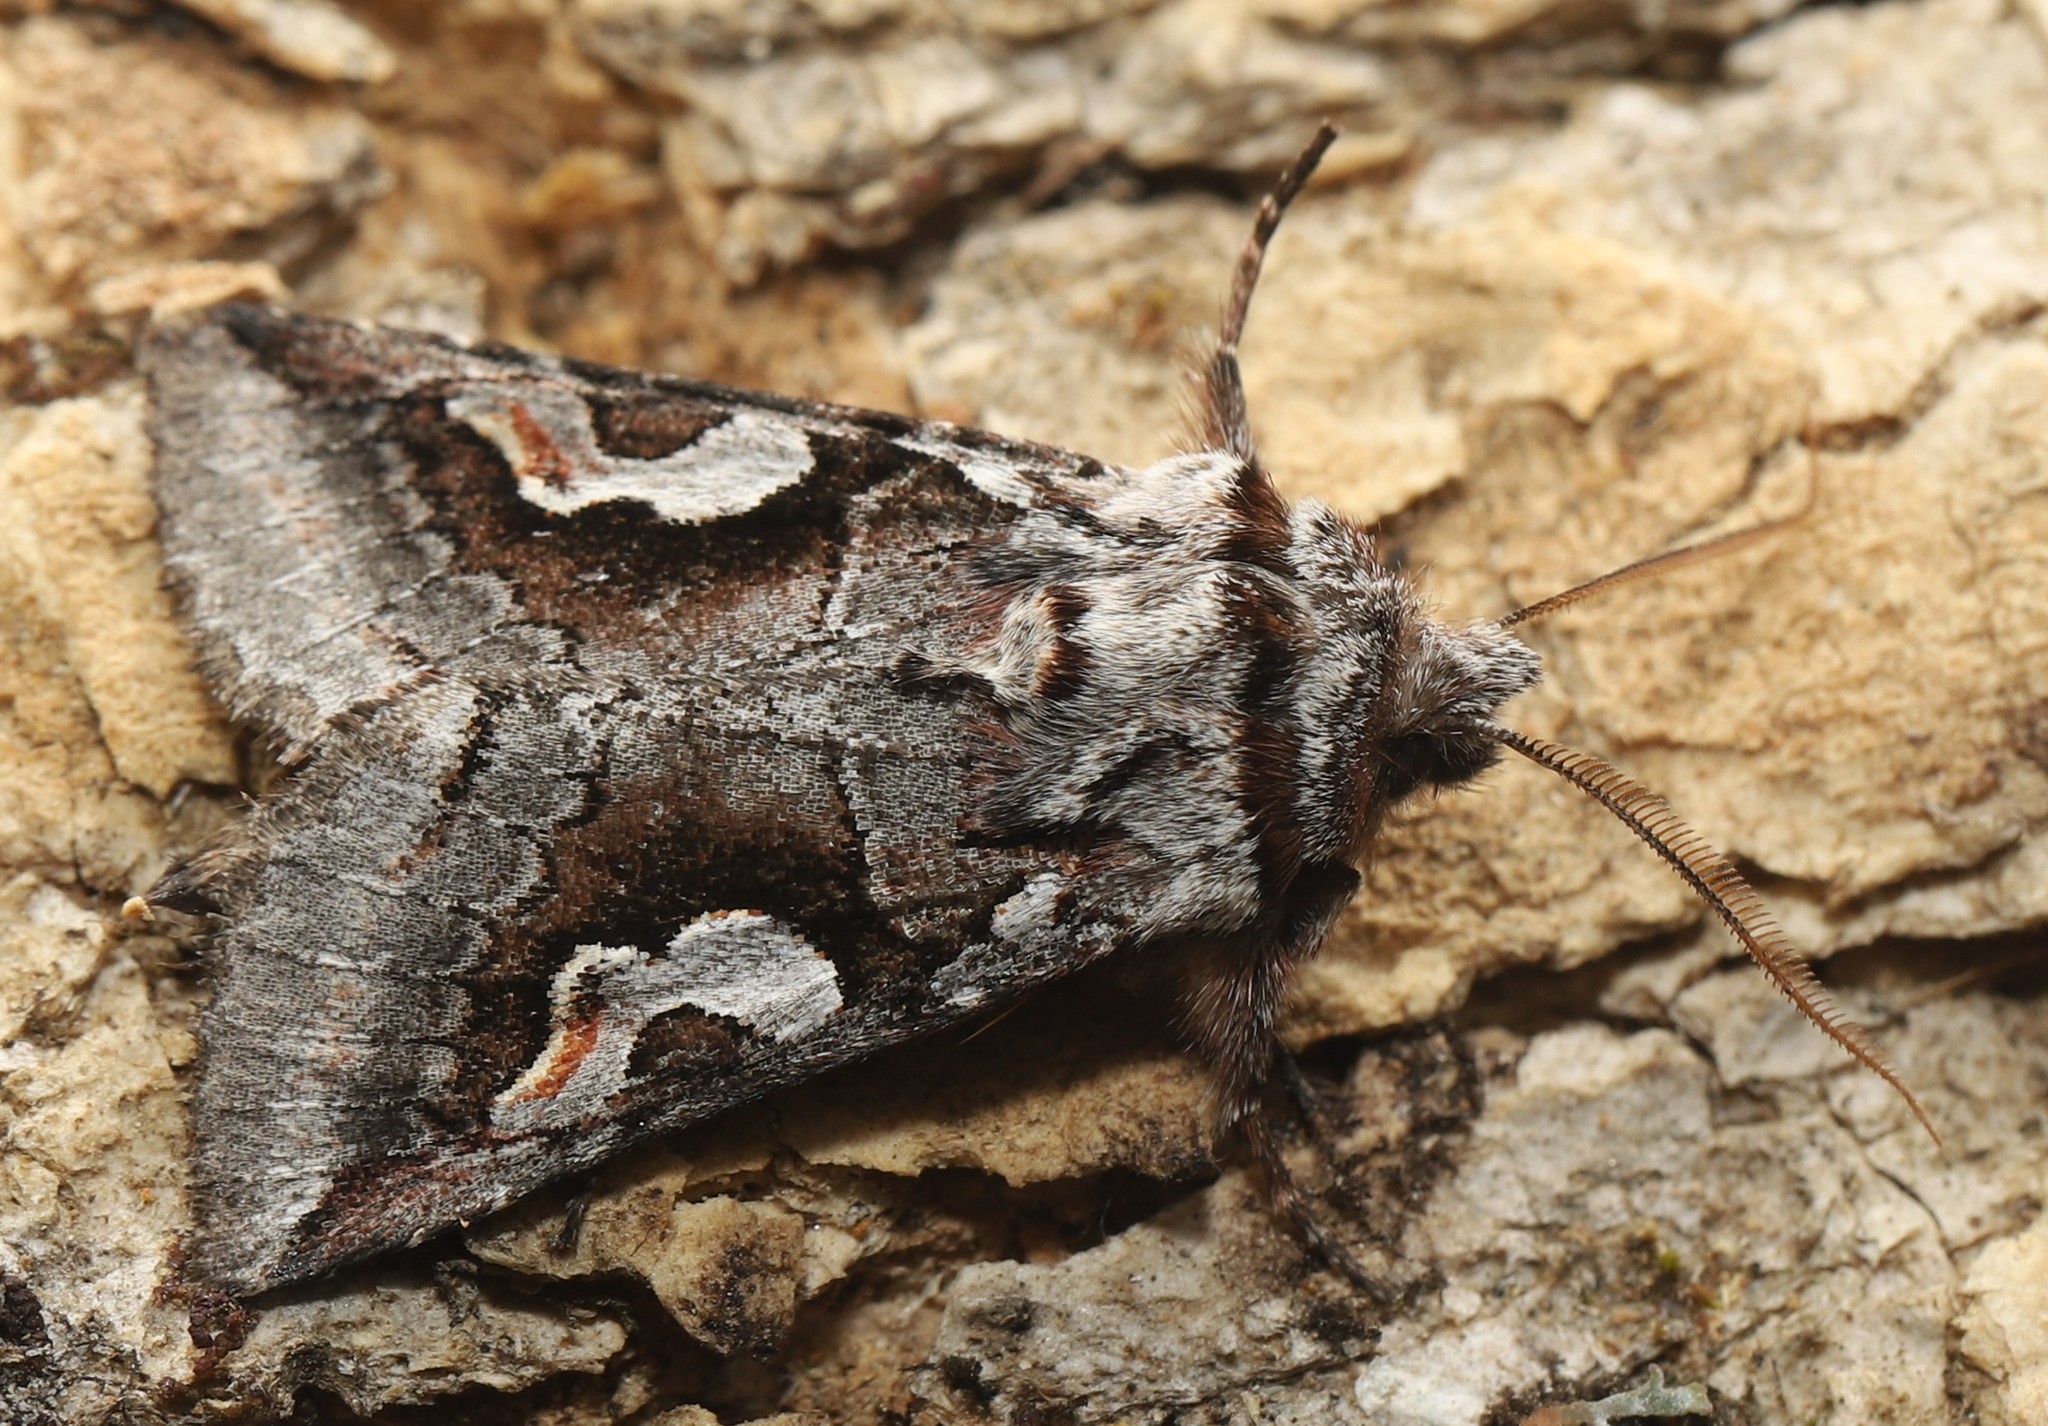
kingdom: Animalia
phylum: Arthropoda
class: Insecta
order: Lepidoptera
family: Noctuidae
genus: Stretchia
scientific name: Stretchia plusiaeformis
